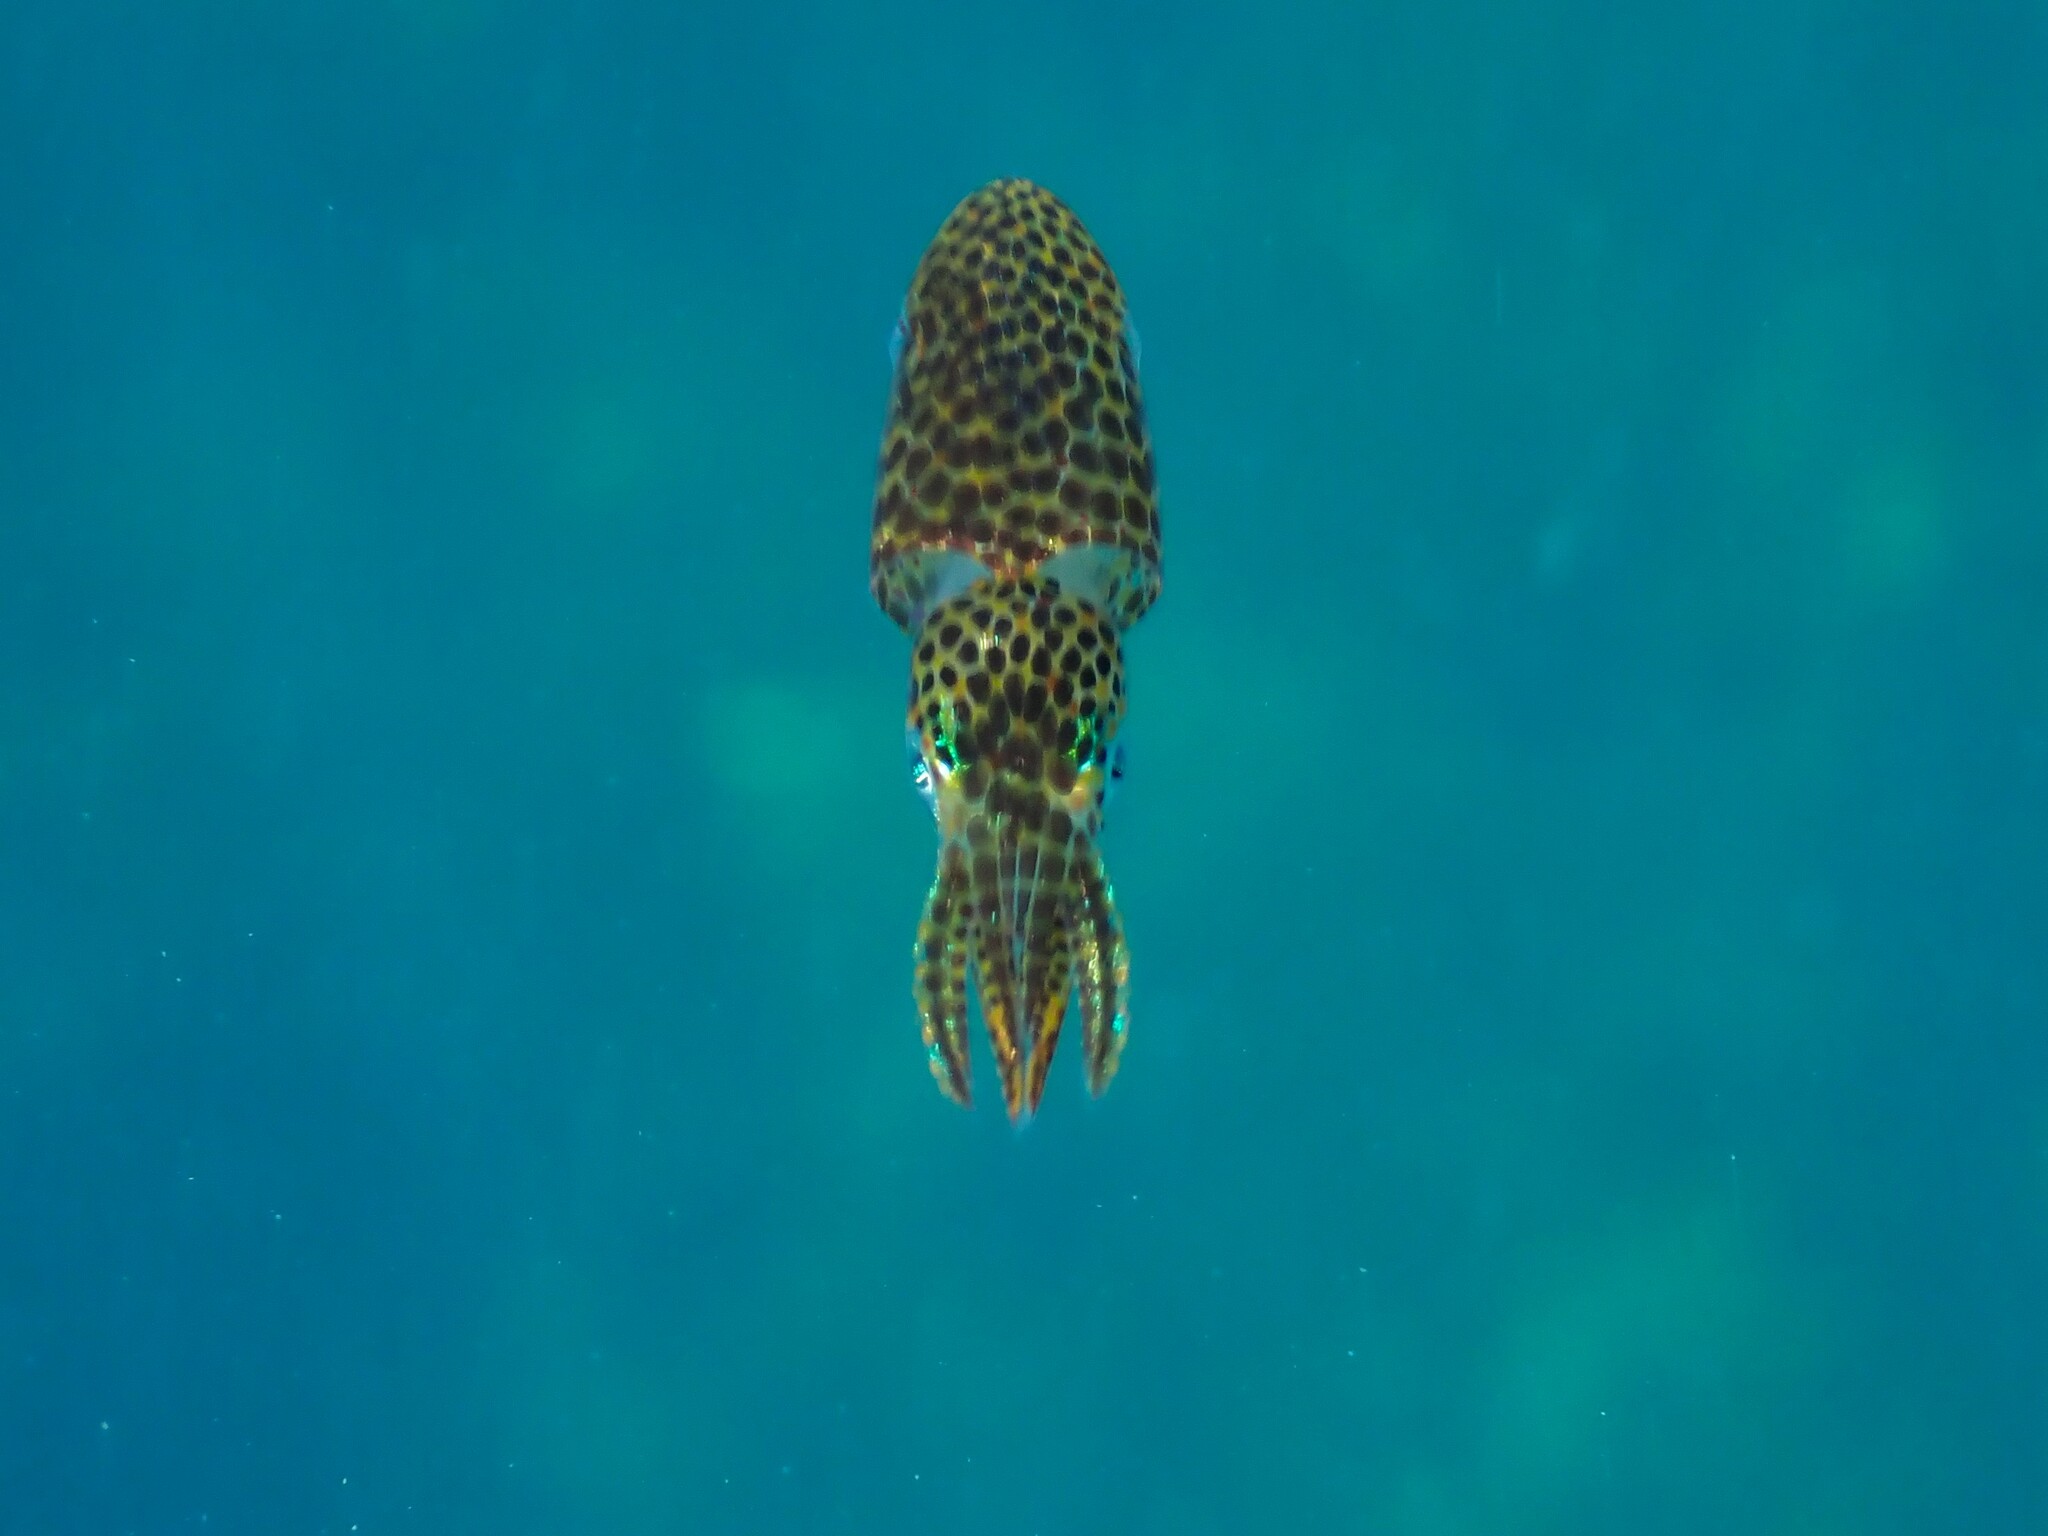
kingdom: Animalia
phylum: Mollusca
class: Cephalopoda
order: Myopsida
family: Loliginidae
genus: Sepioteuthis
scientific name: Sepioteuthis australis
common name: Southern reef squid
